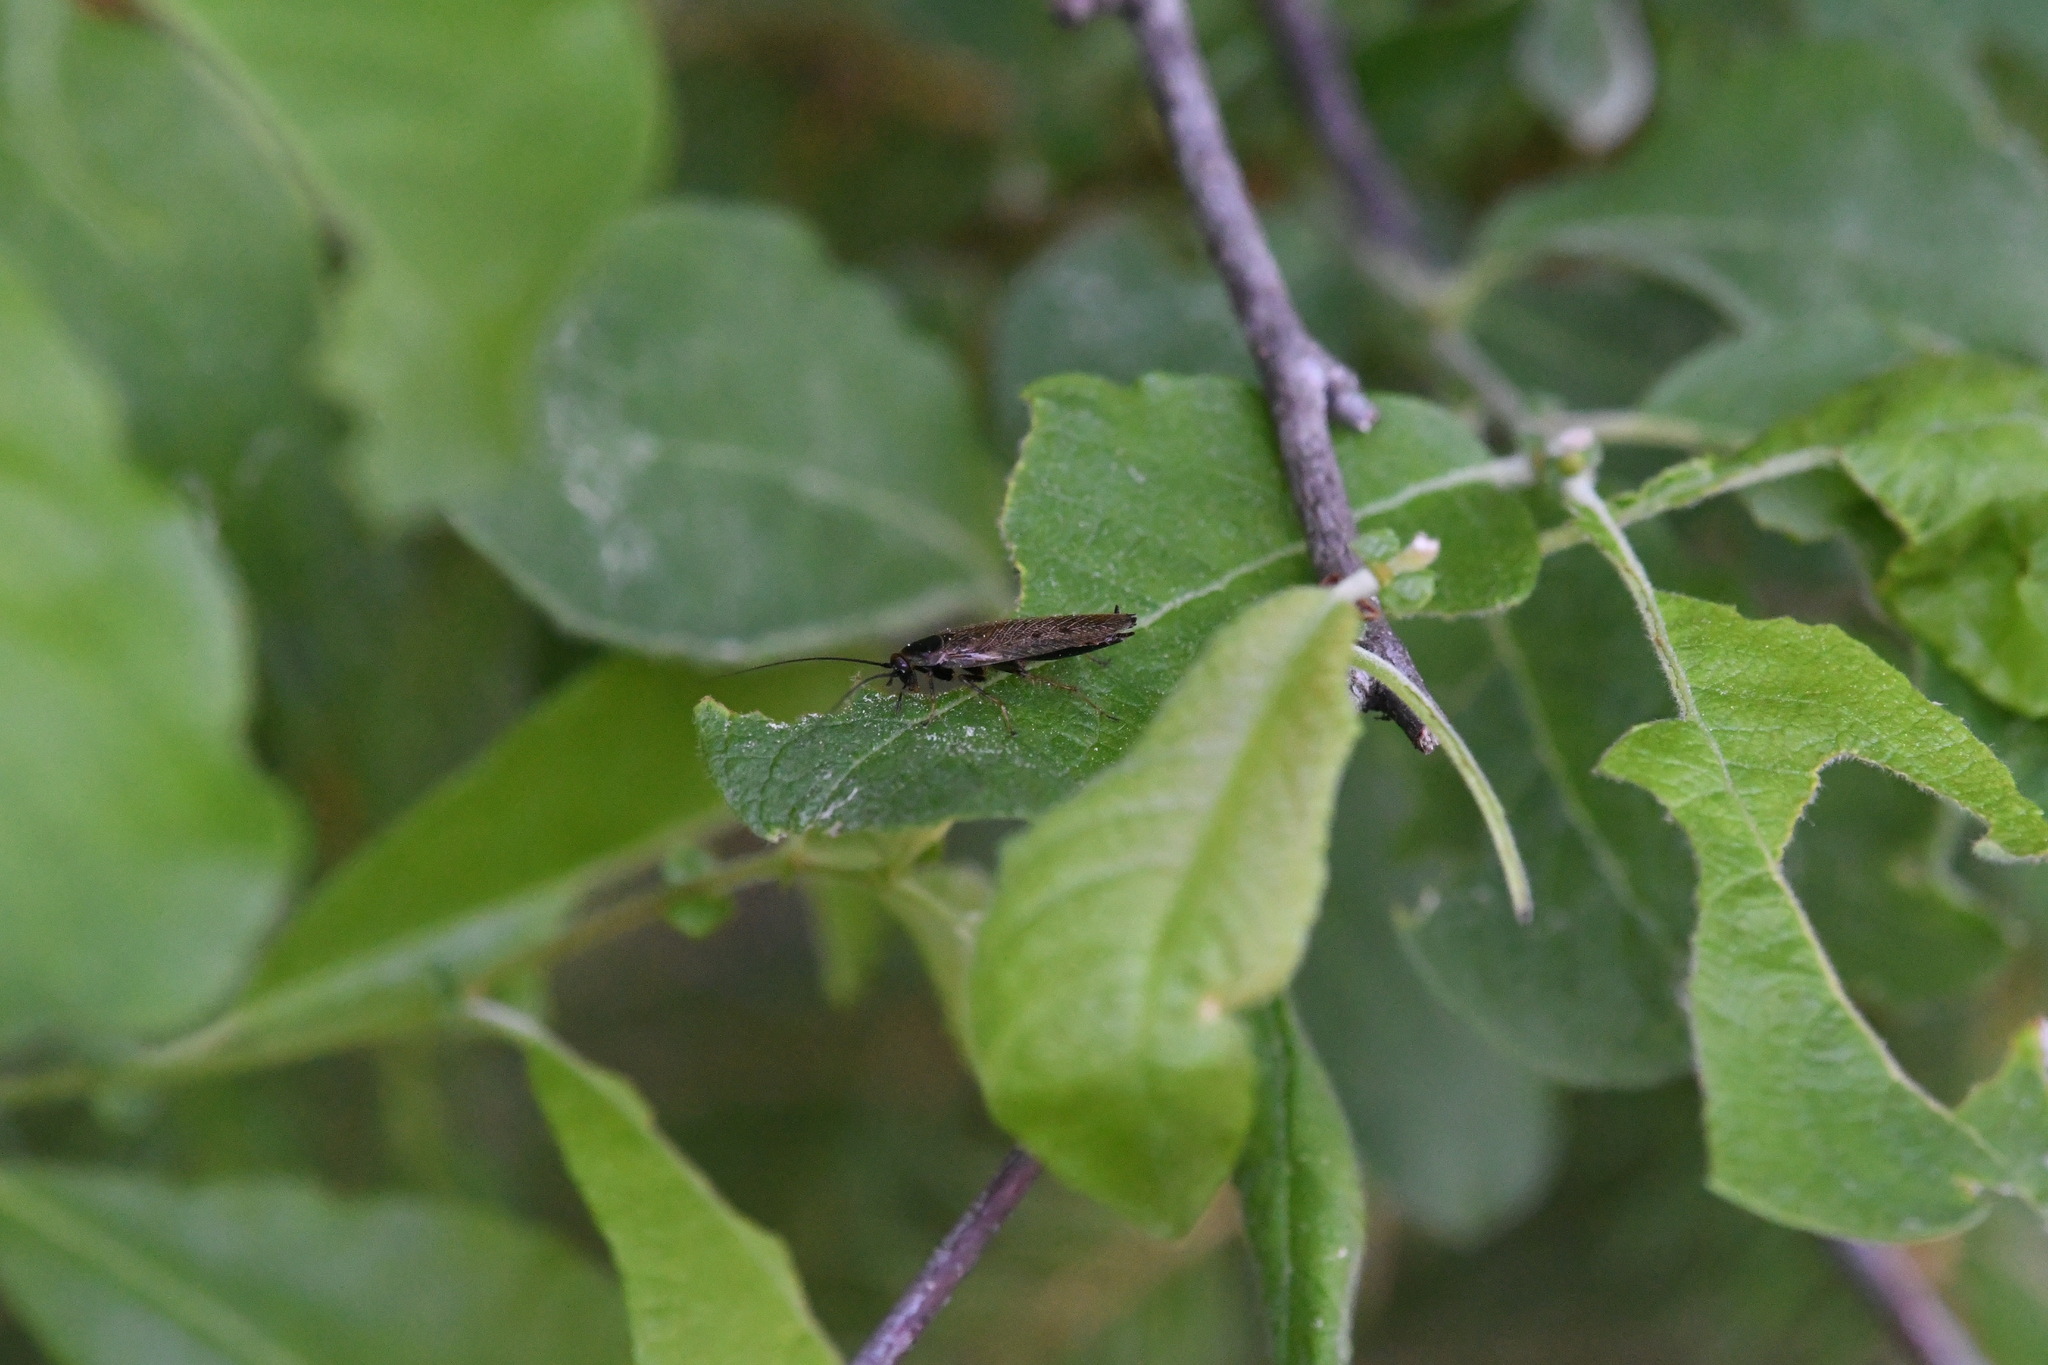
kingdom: Animalia
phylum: Arthropoda
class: Insecta
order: Blattodea
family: Ectobiidae
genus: Ectobius
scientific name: Ectobius lapponicus
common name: Dusky cockroach
